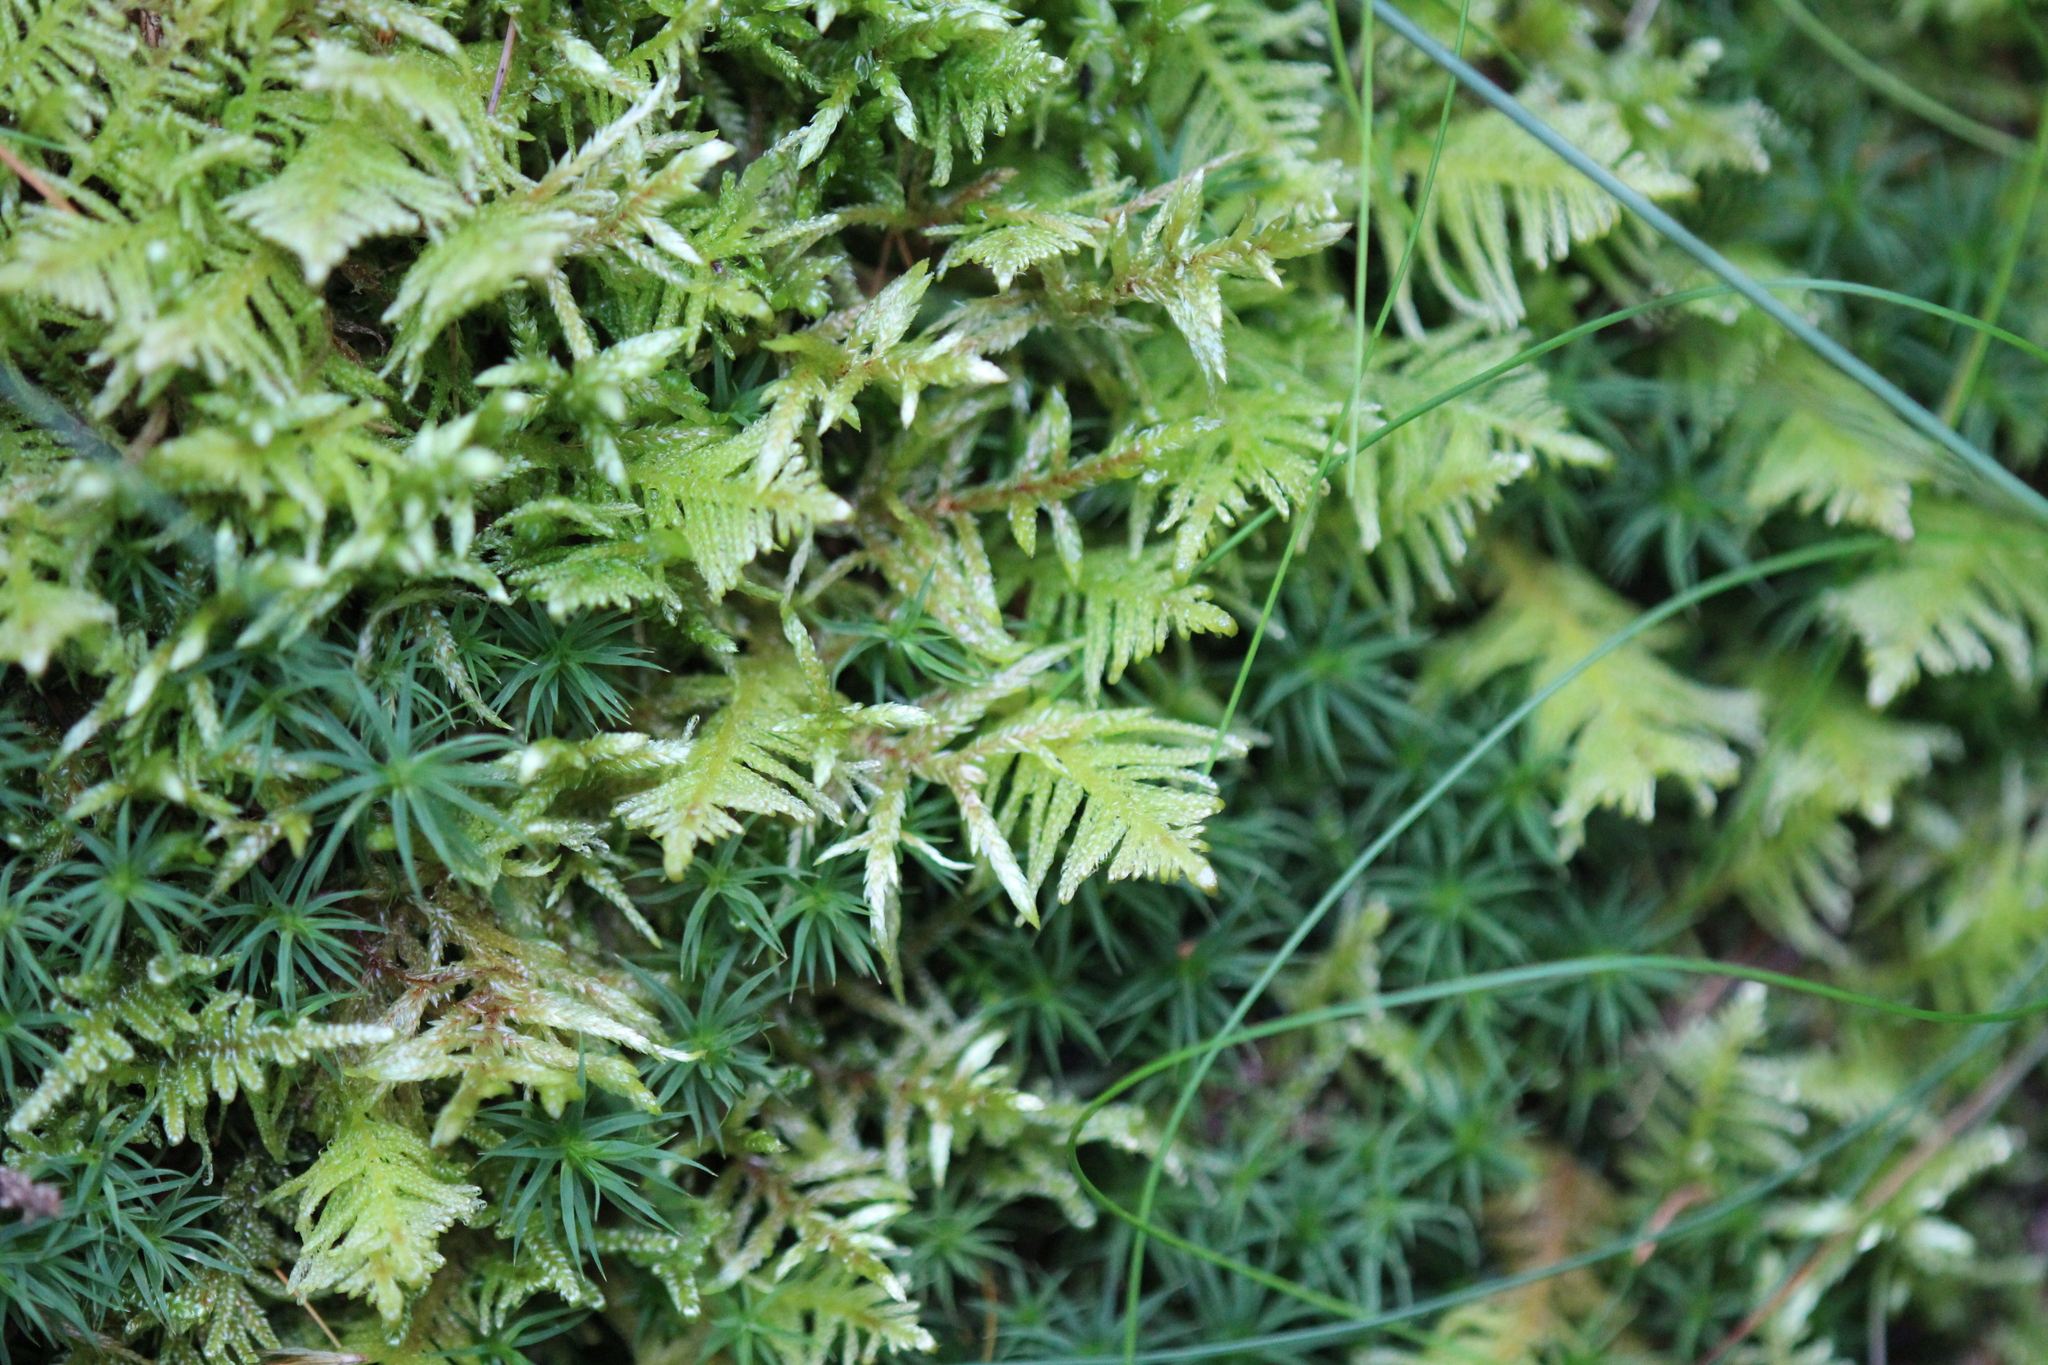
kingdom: Plantae
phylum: Bryophyta
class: Bryopsida
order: Hypnales
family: Pylaisiaceae
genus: Ptilium
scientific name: Ptilium crista-castrensis
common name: Knight's plume moss
